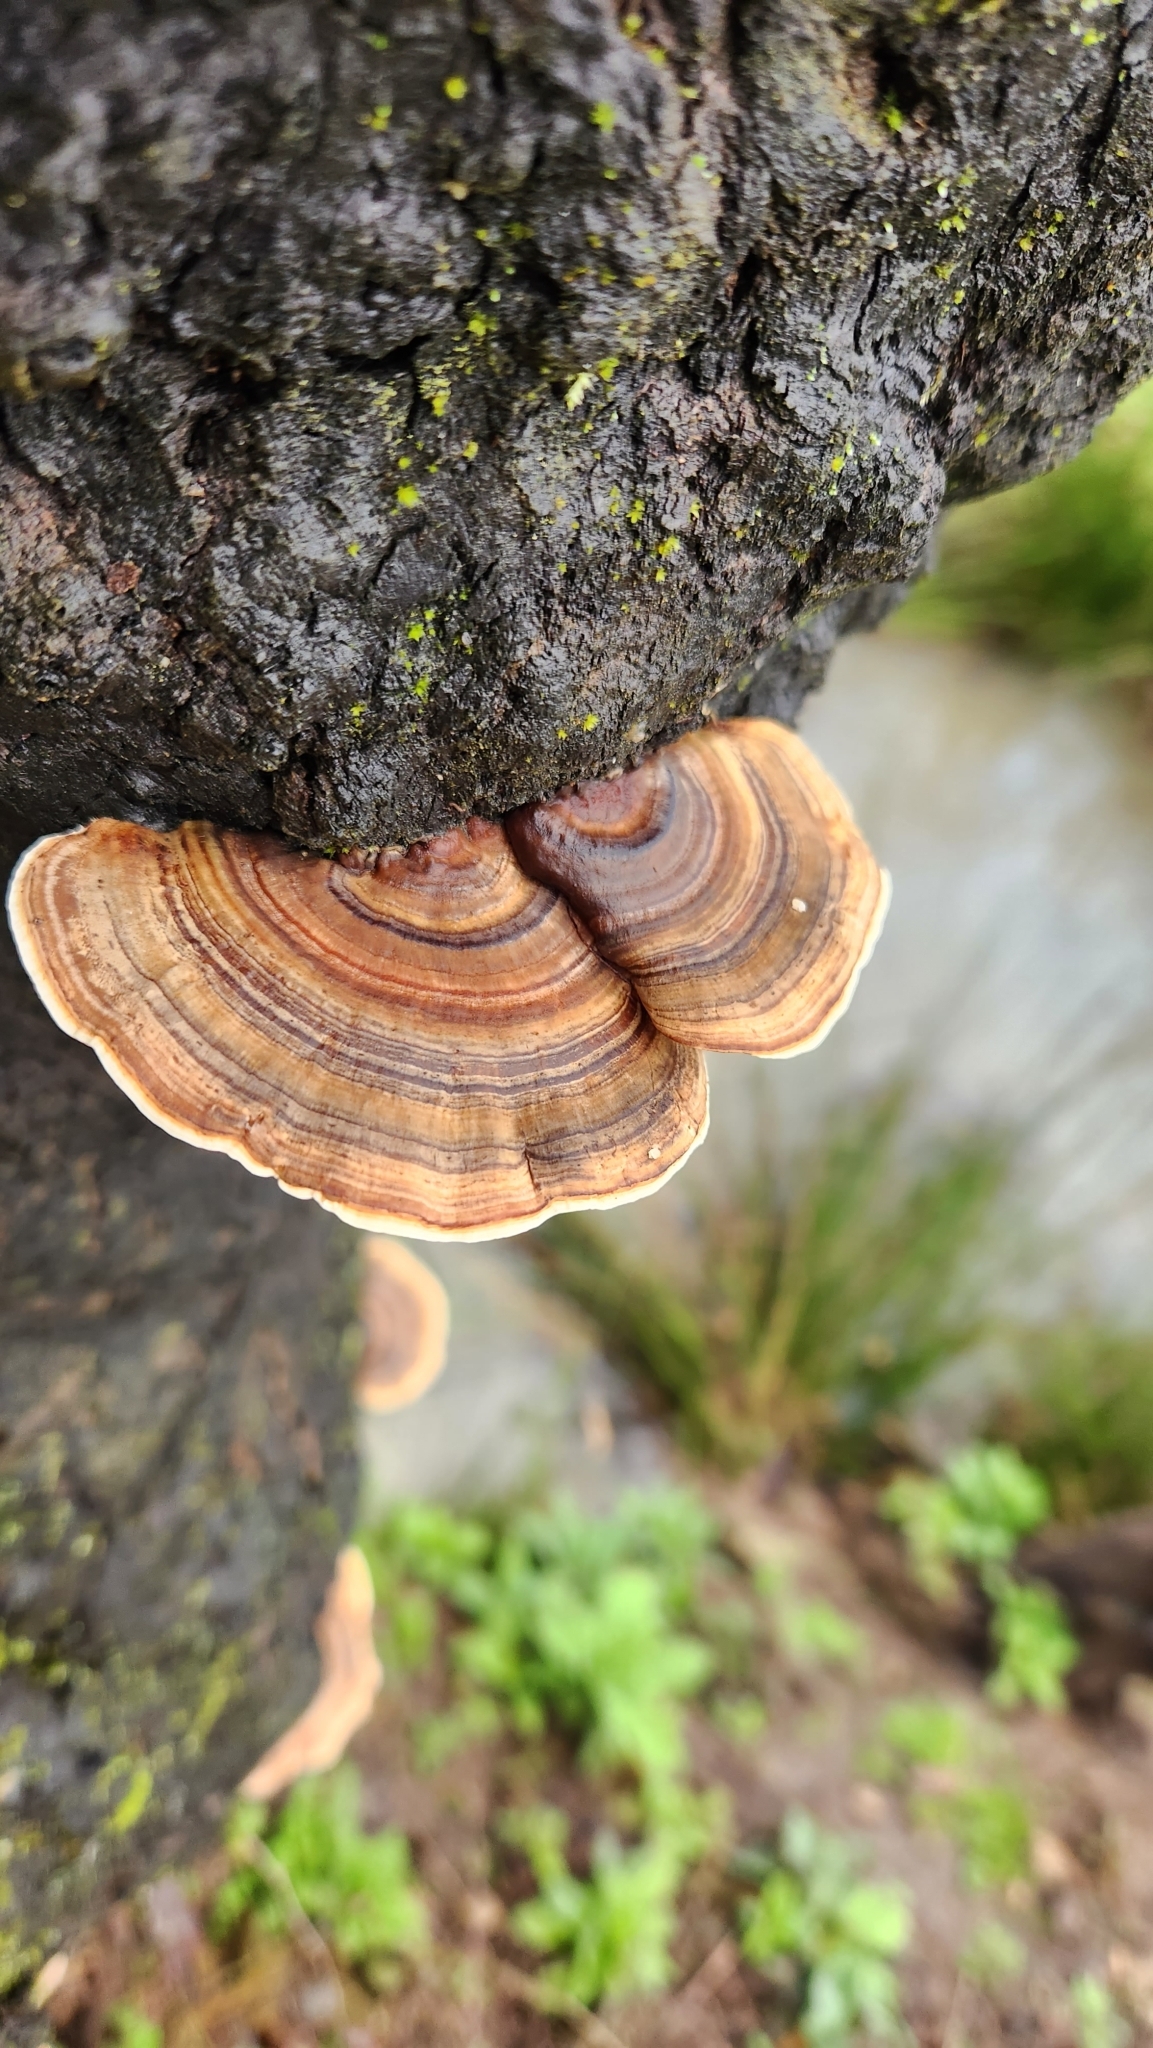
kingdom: Fungi
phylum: Basidiomycota
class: Agaricomycetes
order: Polyporales
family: Polyporaceae
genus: Trametes
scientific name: Trametes versicolor
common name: Turkeytail
